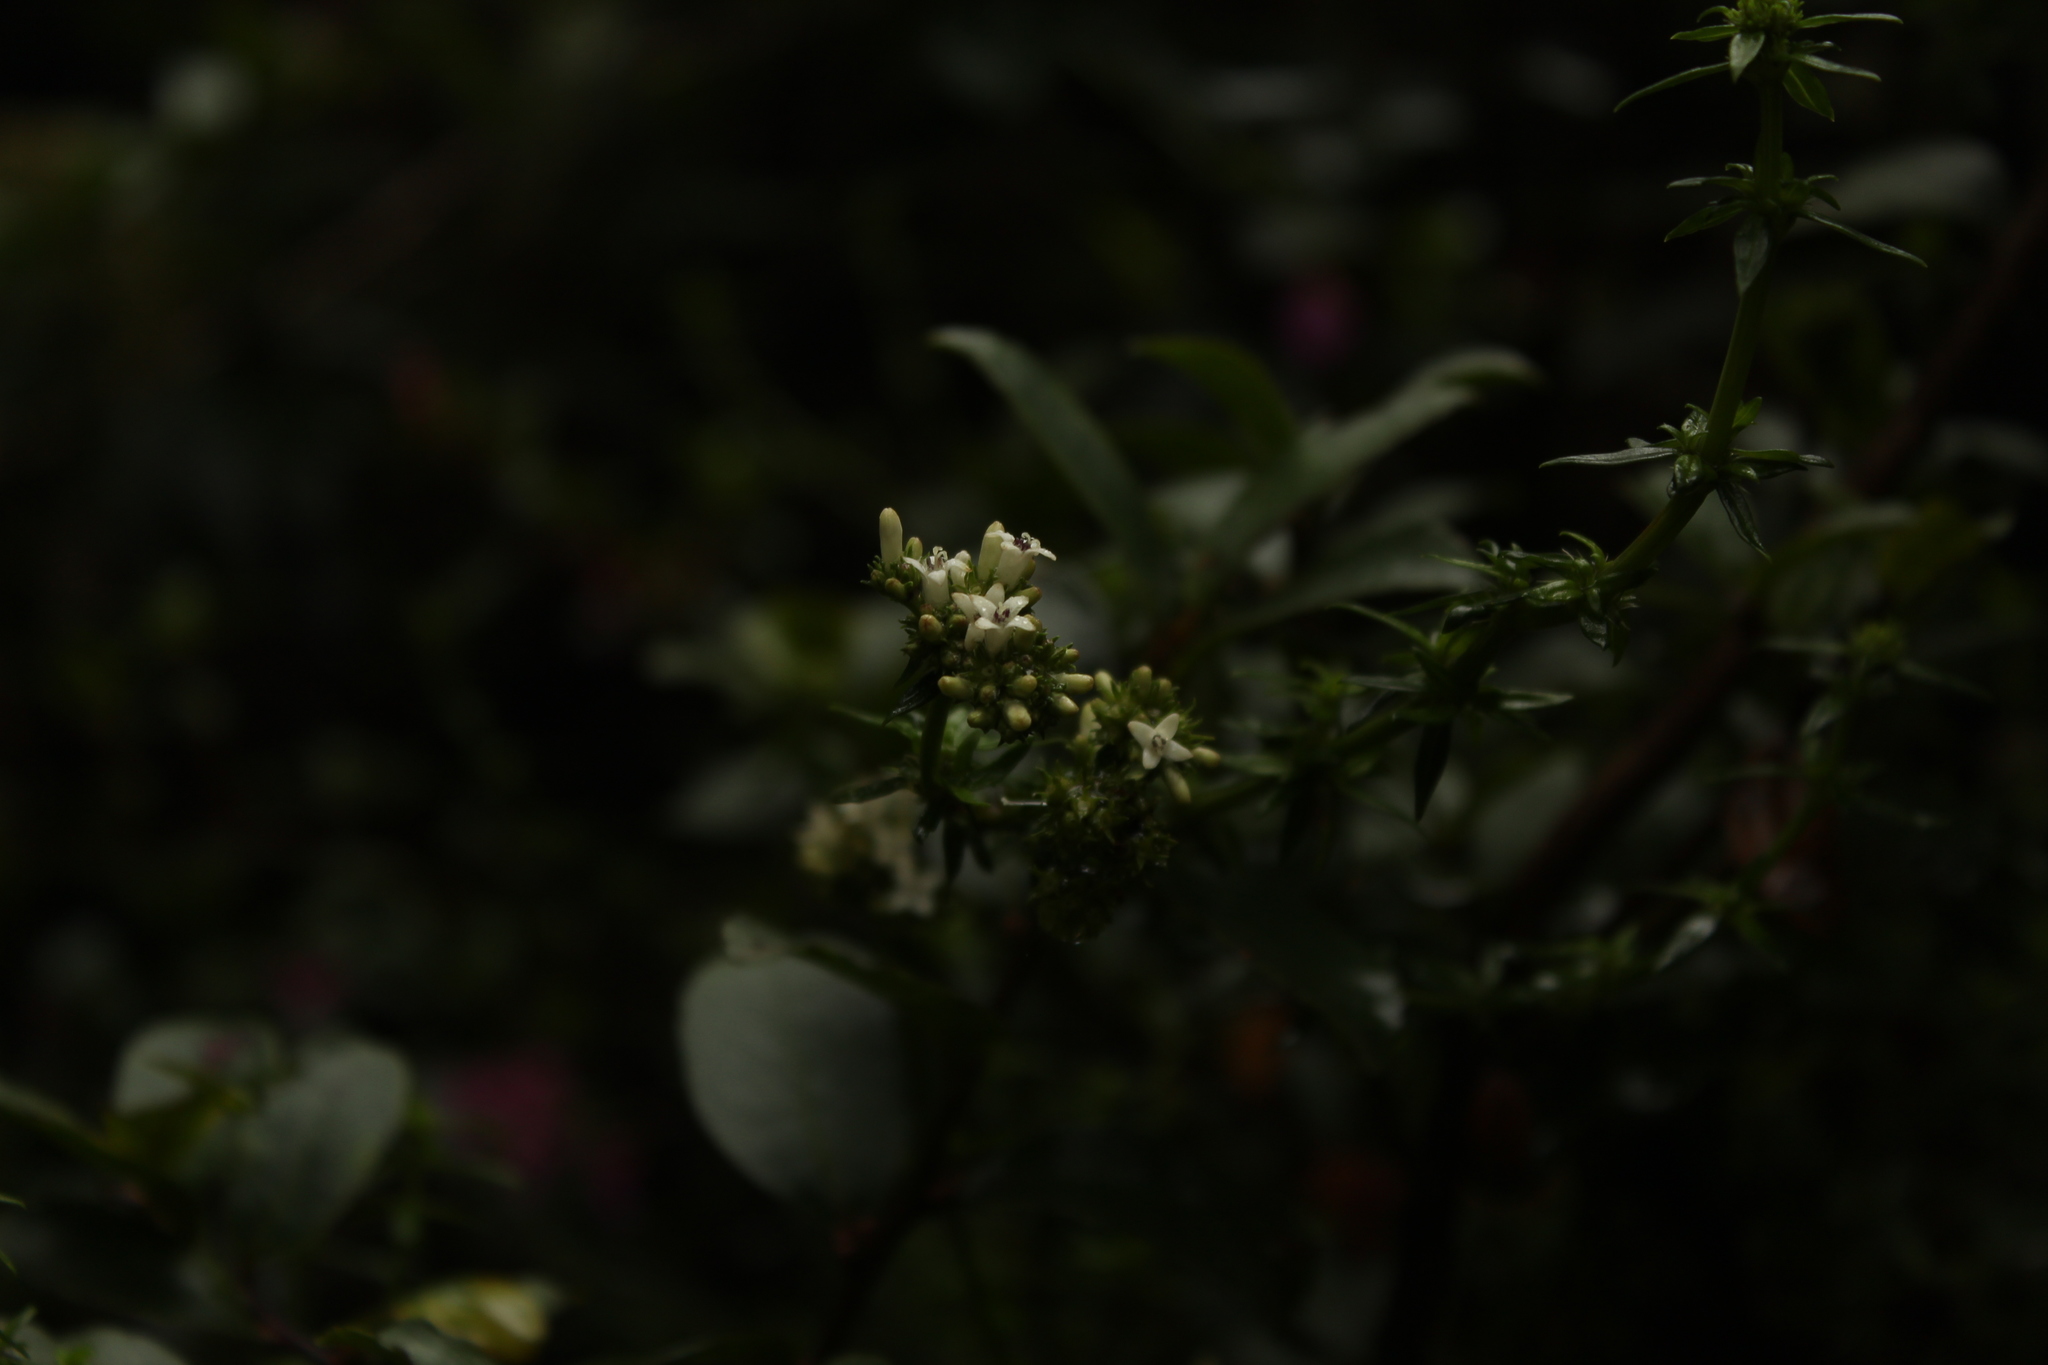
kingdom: Plantae
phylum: Tracheophyta
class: Magnoliopsida
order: Gentianales
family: Rubiaceae
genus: Galianthe
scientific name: Galianthe bogotensis
